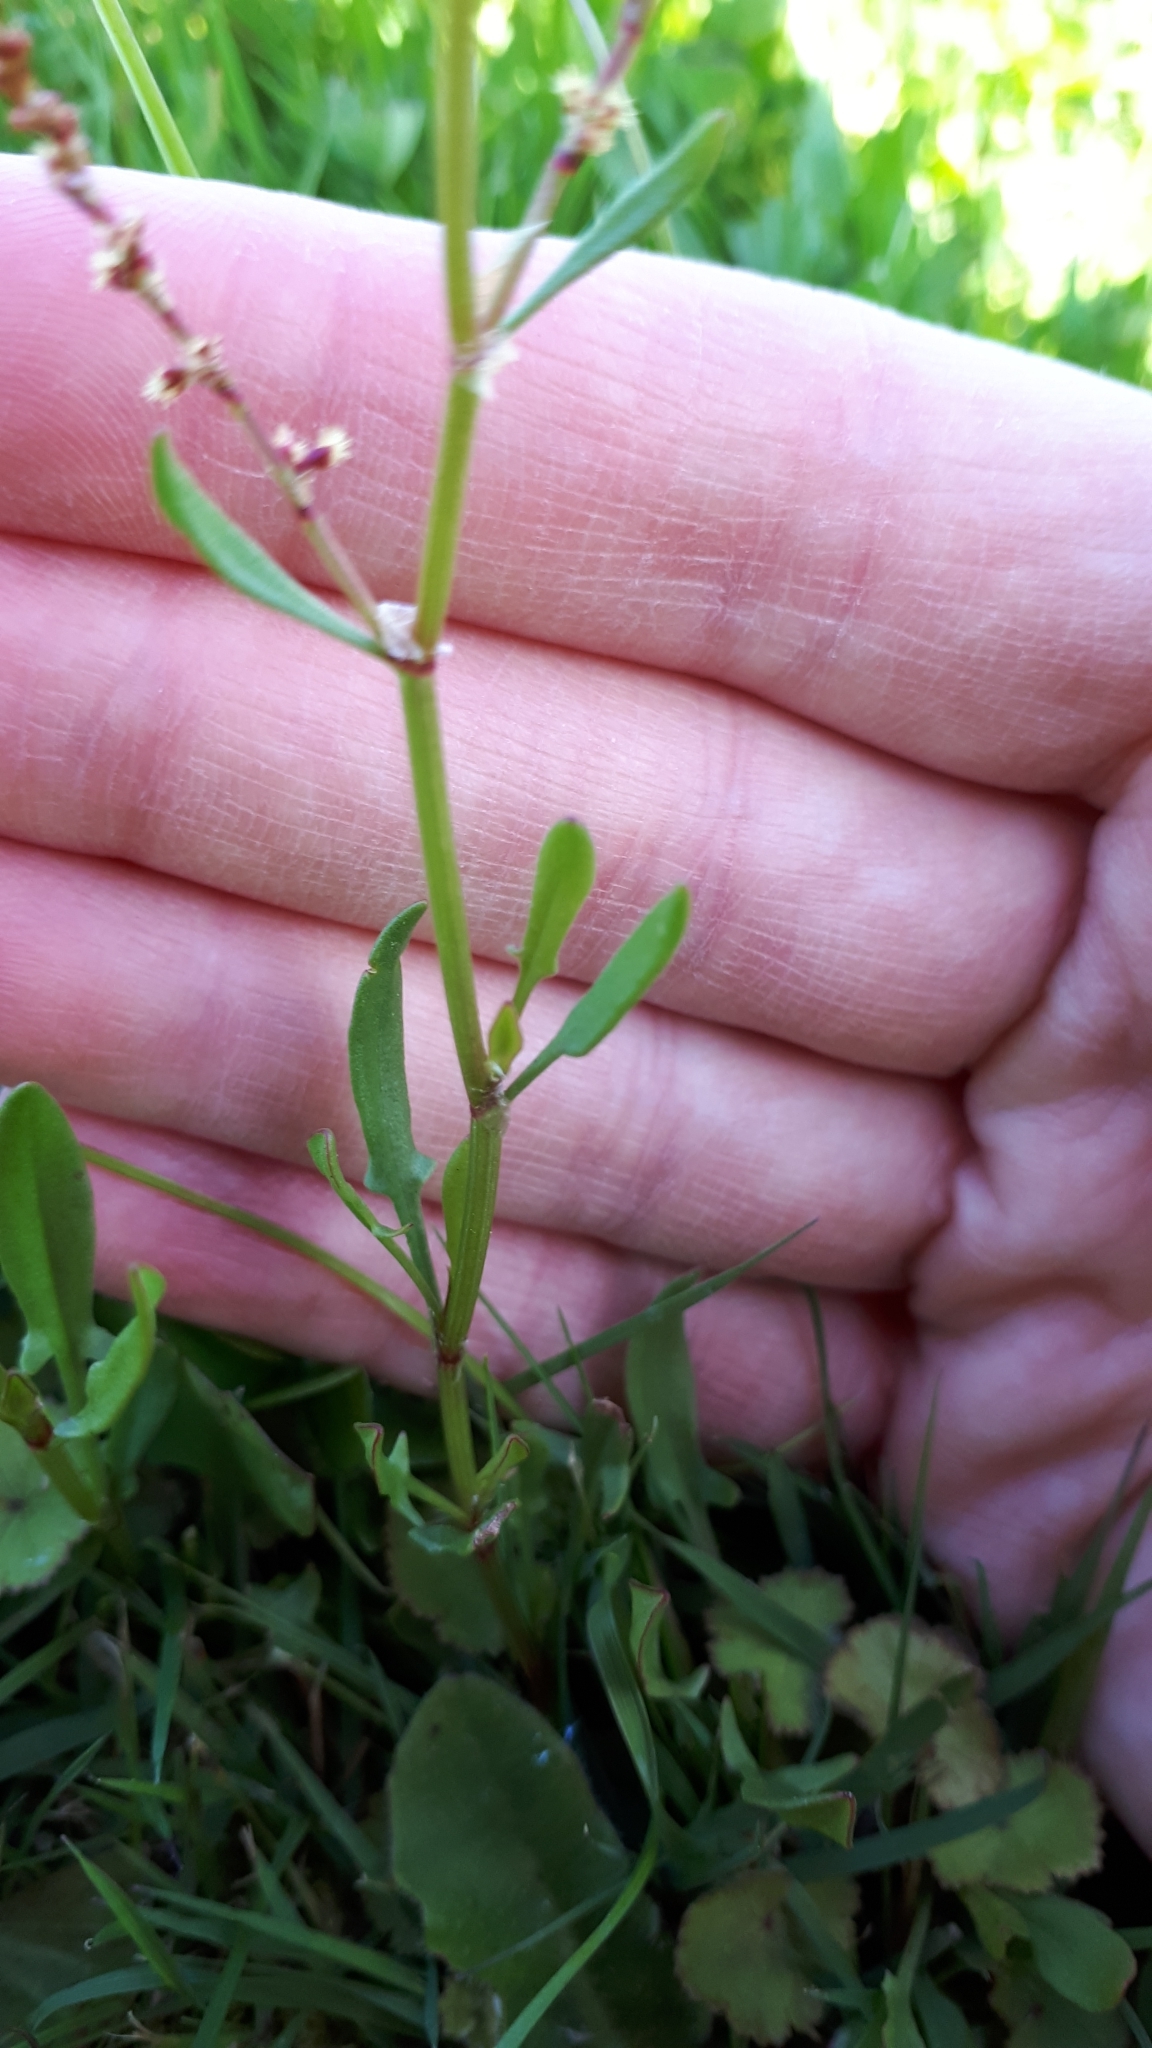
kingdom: Plantae
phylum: Tracheophyta
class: Magnoliopsida
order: Caryophyllales
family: Polygonaceae
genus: Rumex
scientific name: Rumex acetosella
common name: Common sheep sorrel
